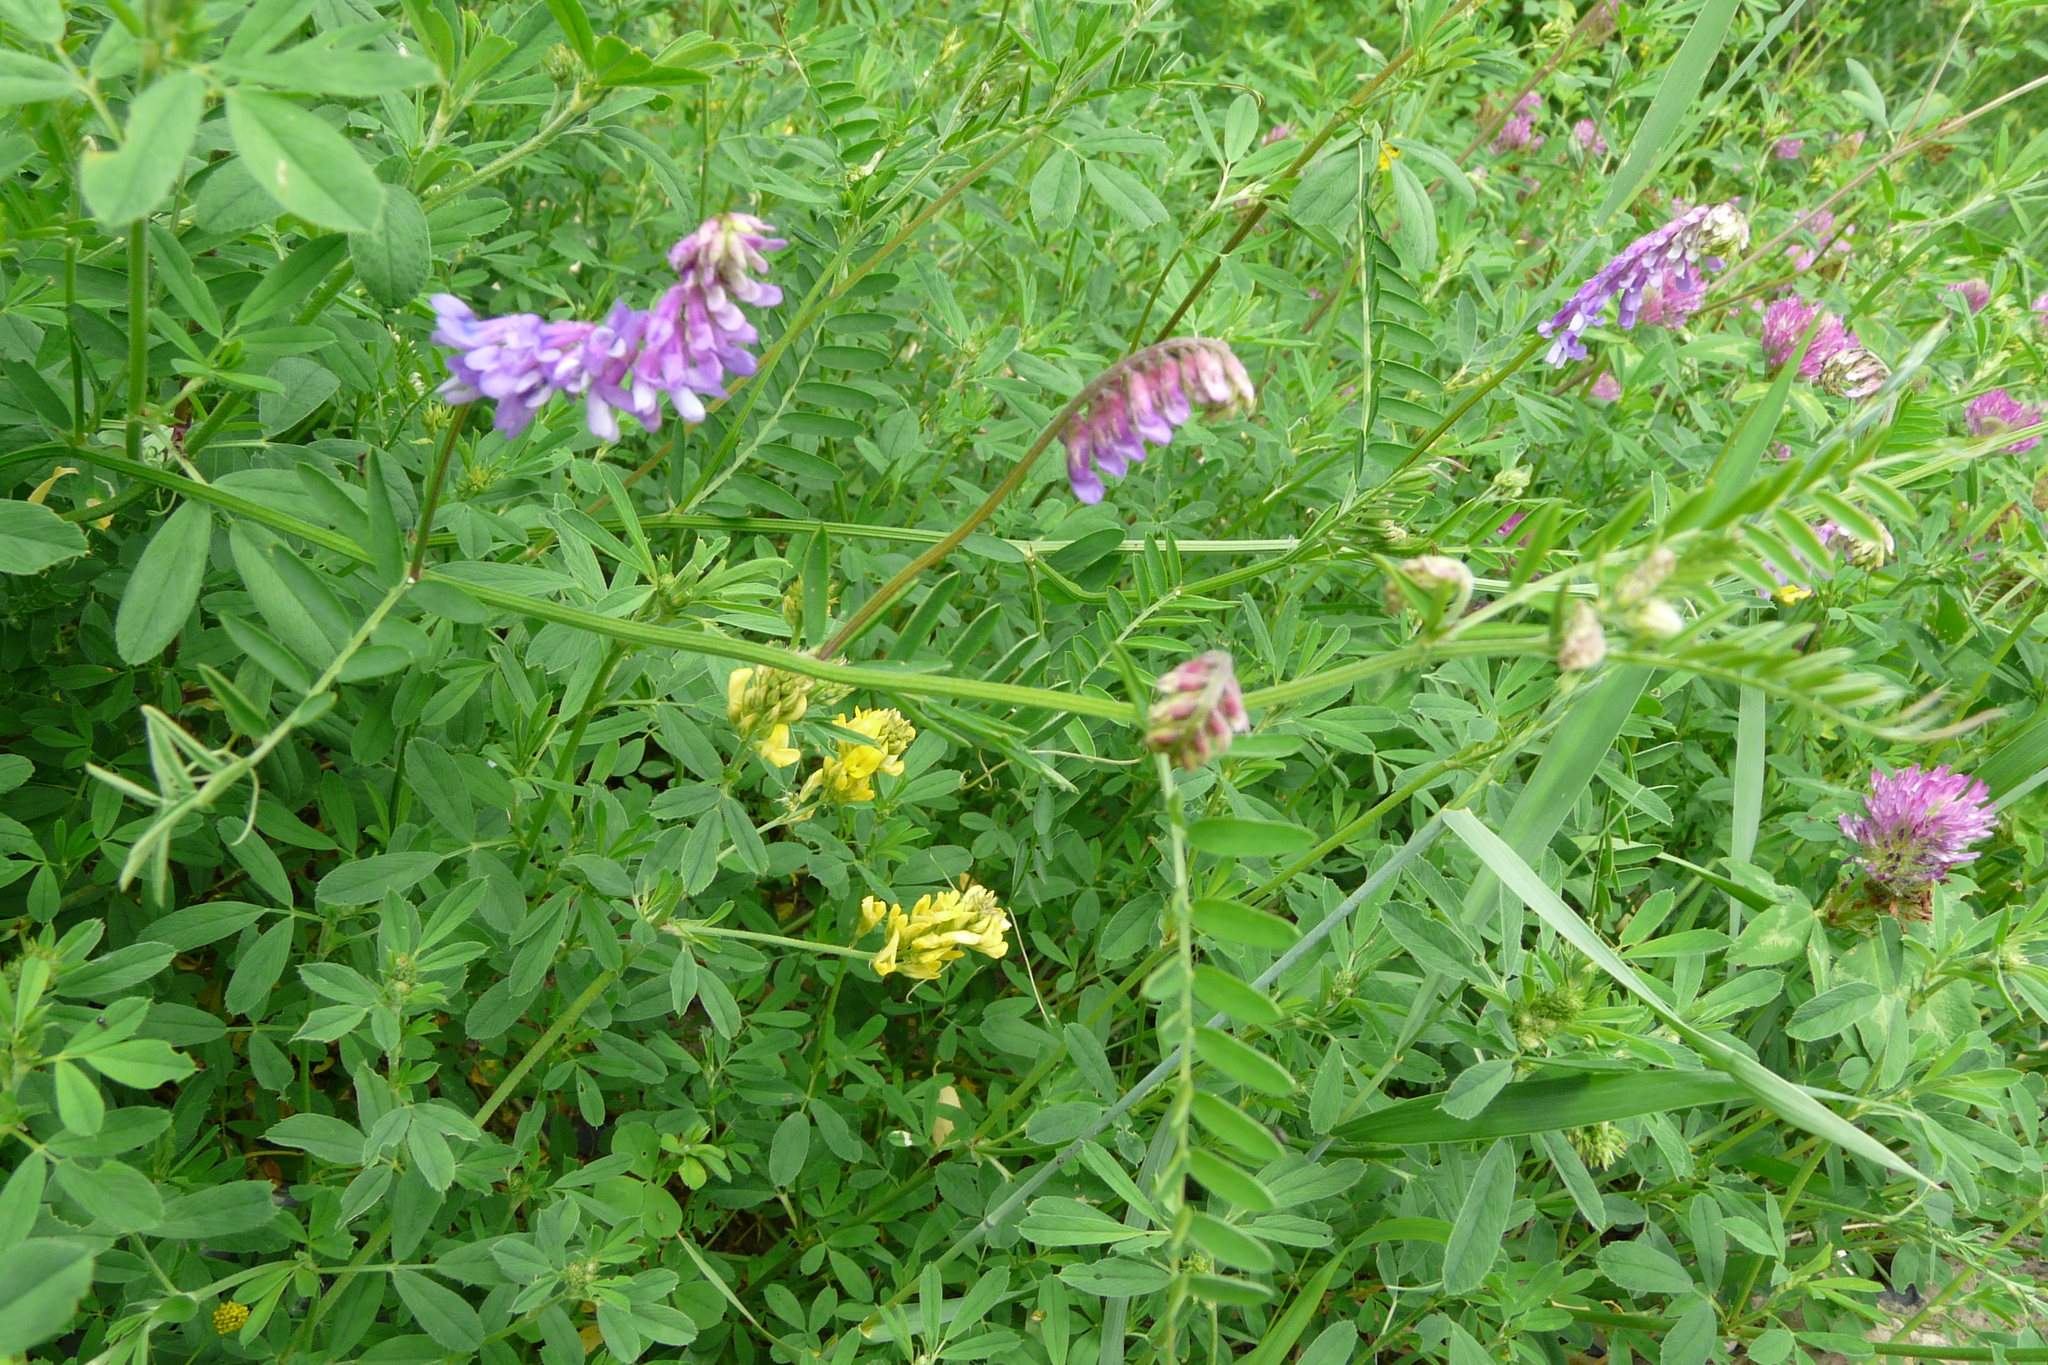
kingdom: Plantae
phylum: Tracheophyta
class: Magnoliopsida
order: Fabales
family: Fabaceae
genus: Vicia
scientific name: Vicia cracca
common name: Bird vetch
